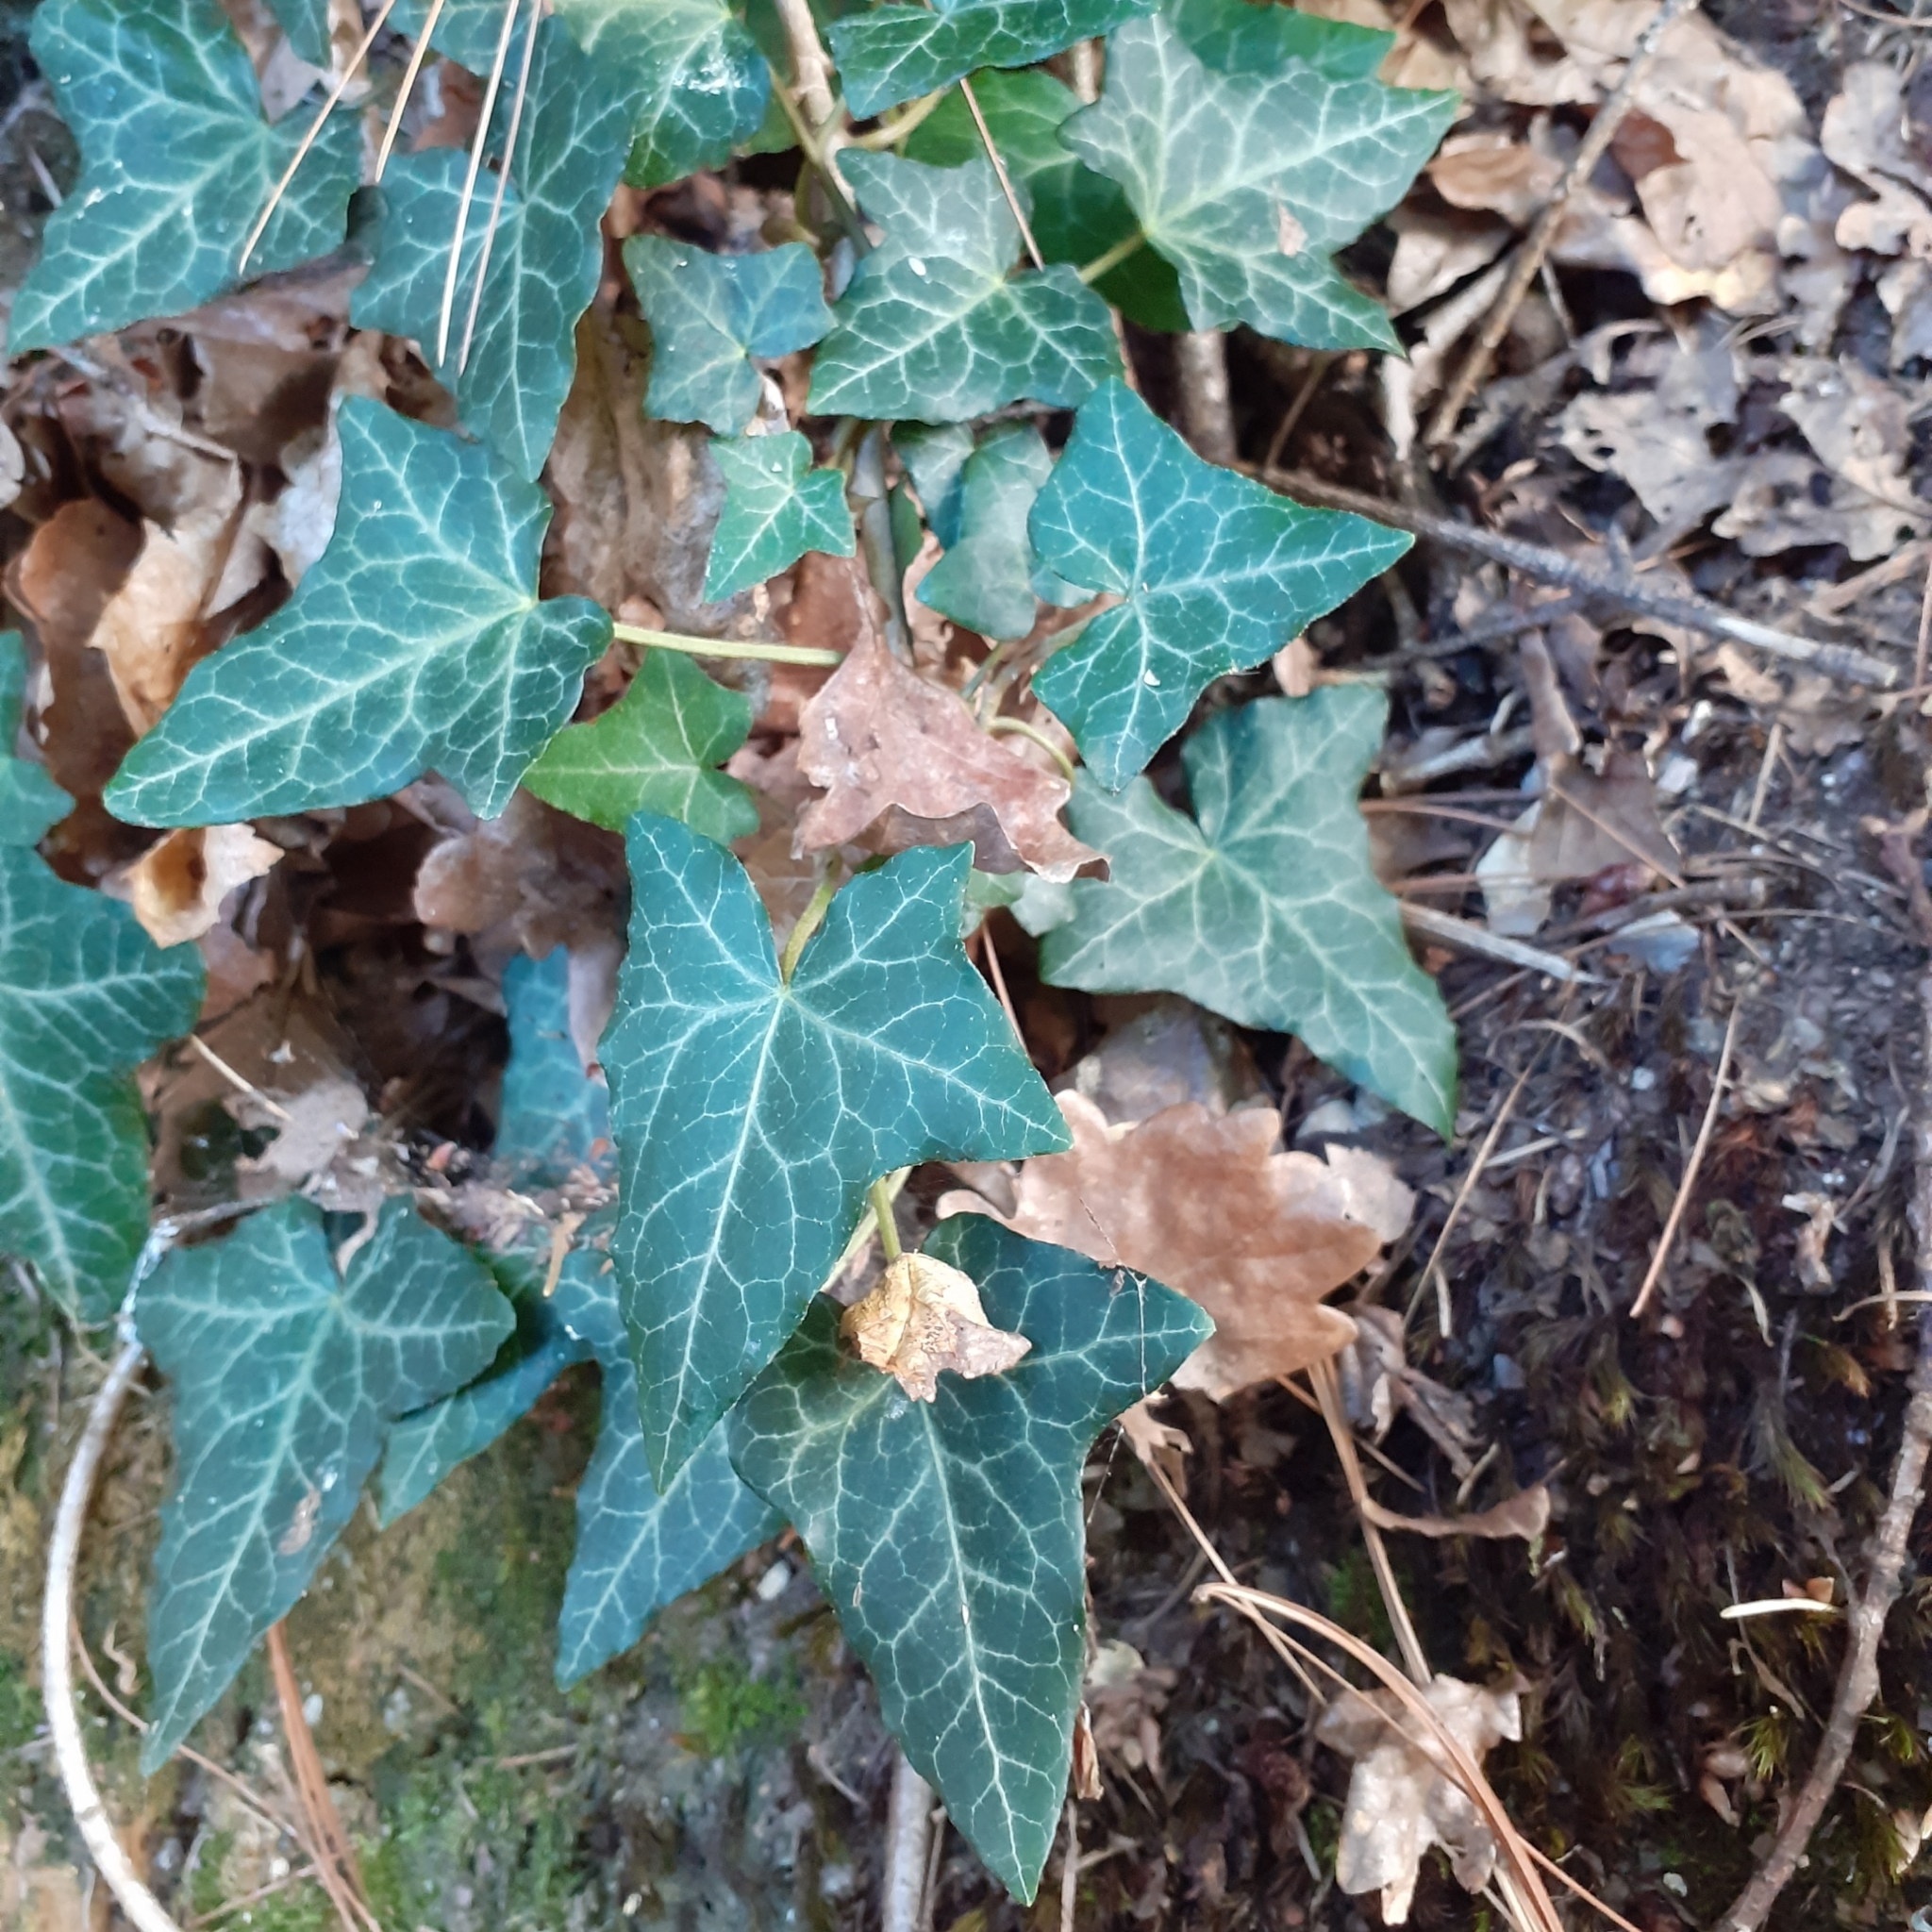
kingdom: Plantae
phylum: Tracheophyta
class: Magnoliopsida
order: Apiales
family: Araliaceae
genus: Hedera
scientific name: Hedera helix
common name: Ivy
